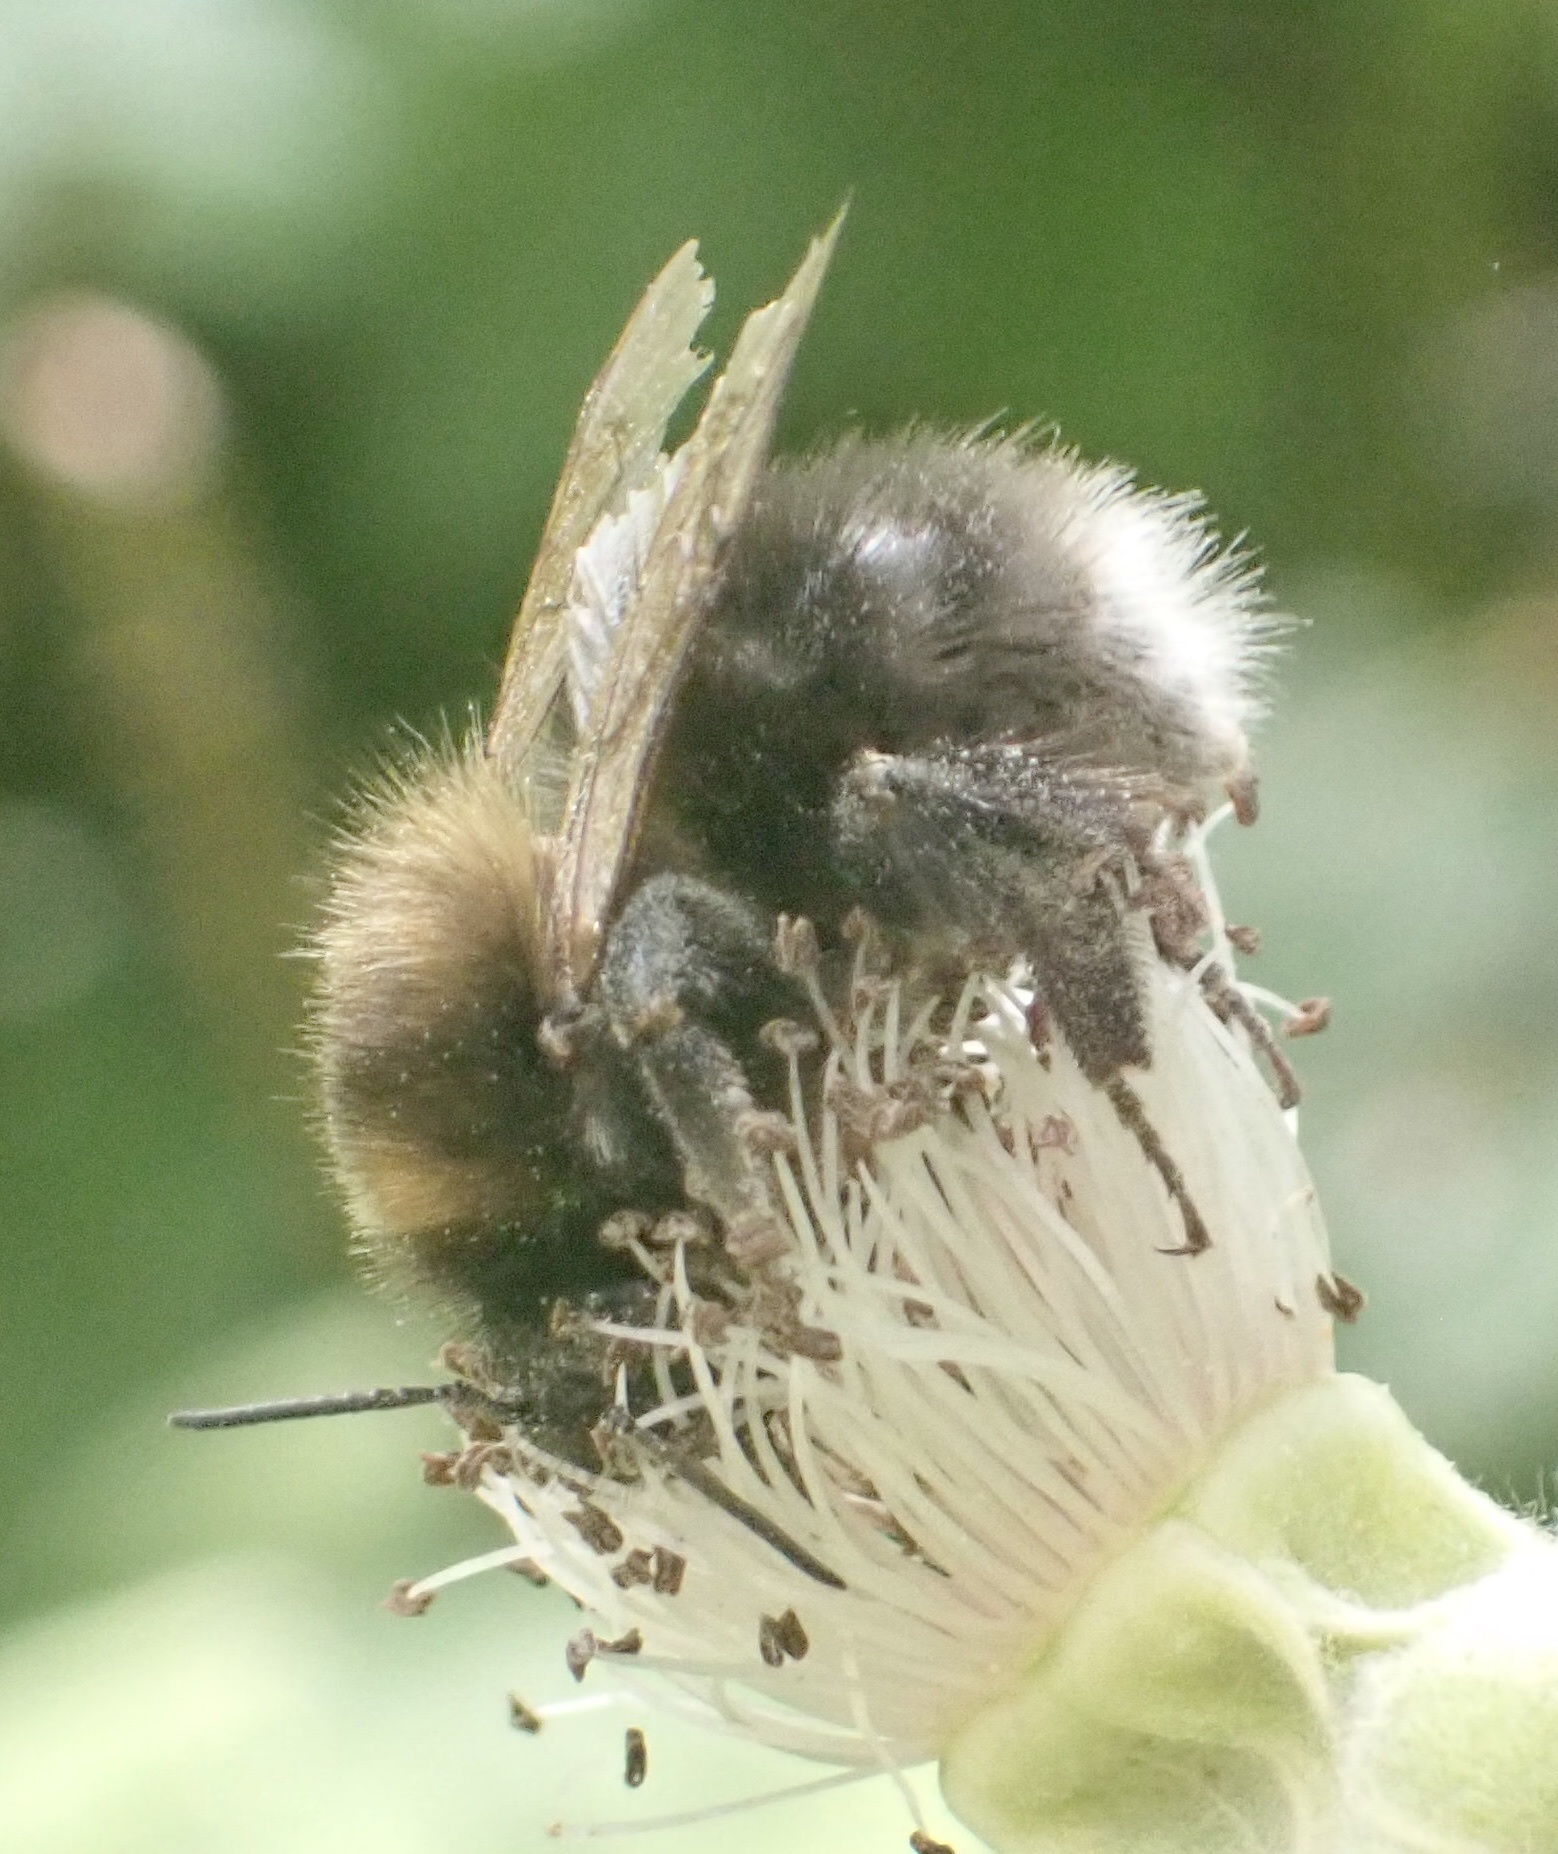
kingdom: Animalia
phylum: Arthropoda
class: Insecta
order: Hymenoptera
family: Apidae
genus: Bombus
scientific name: Bombus hypnorum
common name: New garden bumblebee
